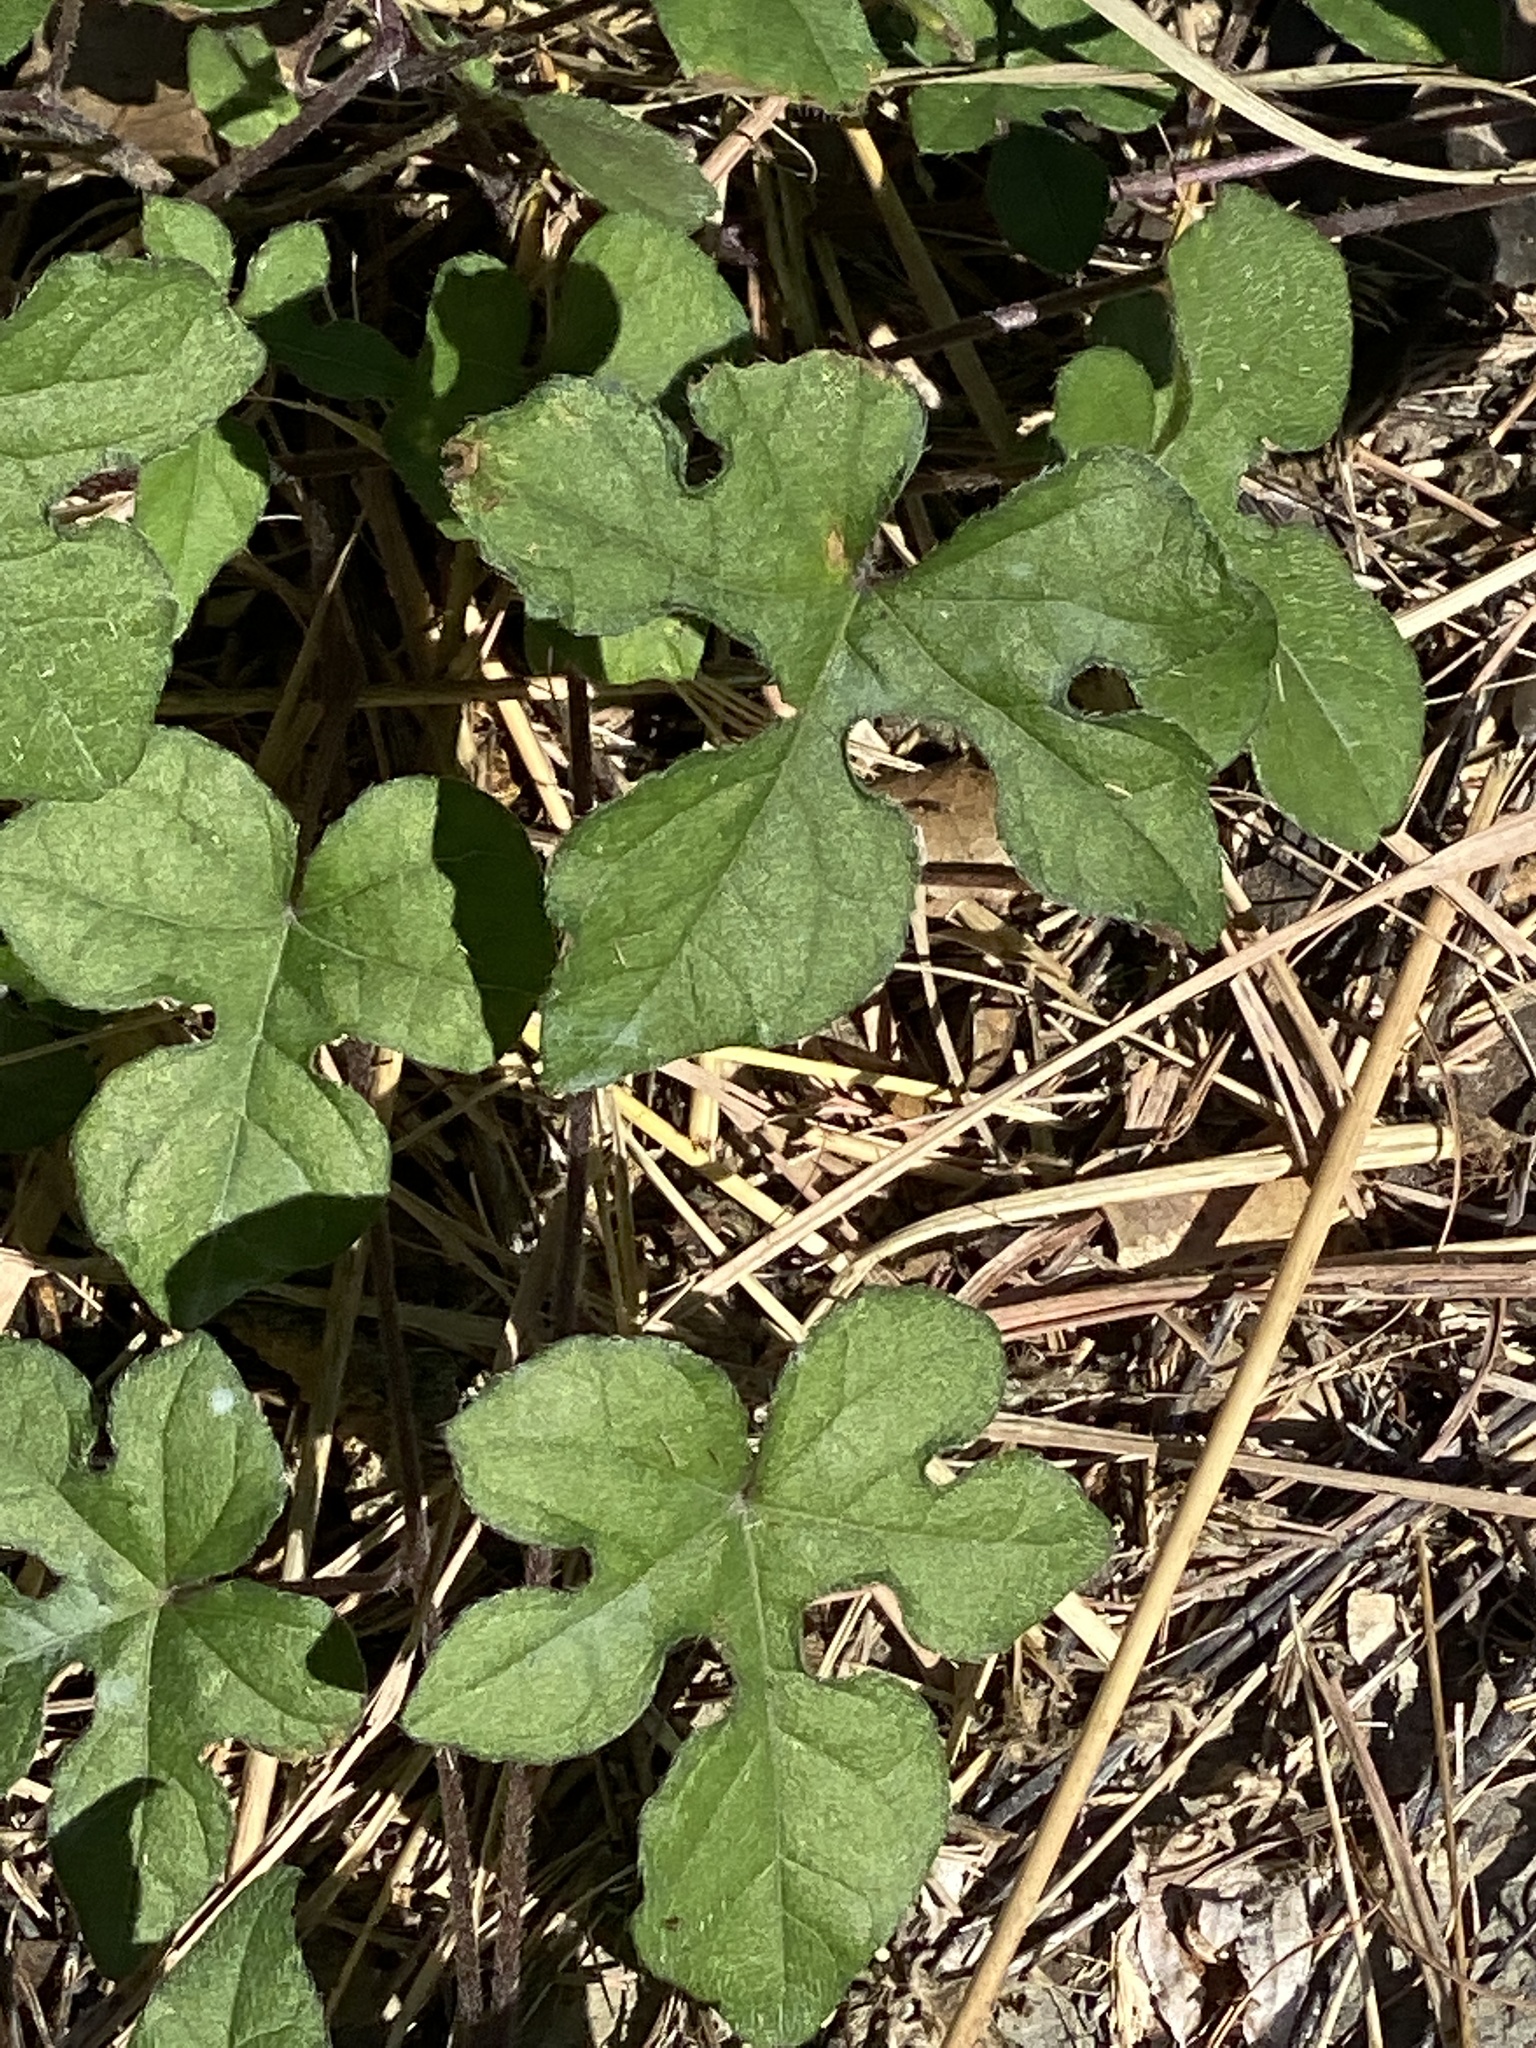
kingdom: Plantae
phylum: Tracheophyta
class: Magnoliopsida
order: Solanales
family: Convolvulaceae
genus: Ipomoea
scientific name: Ipomoea lindheimeri
